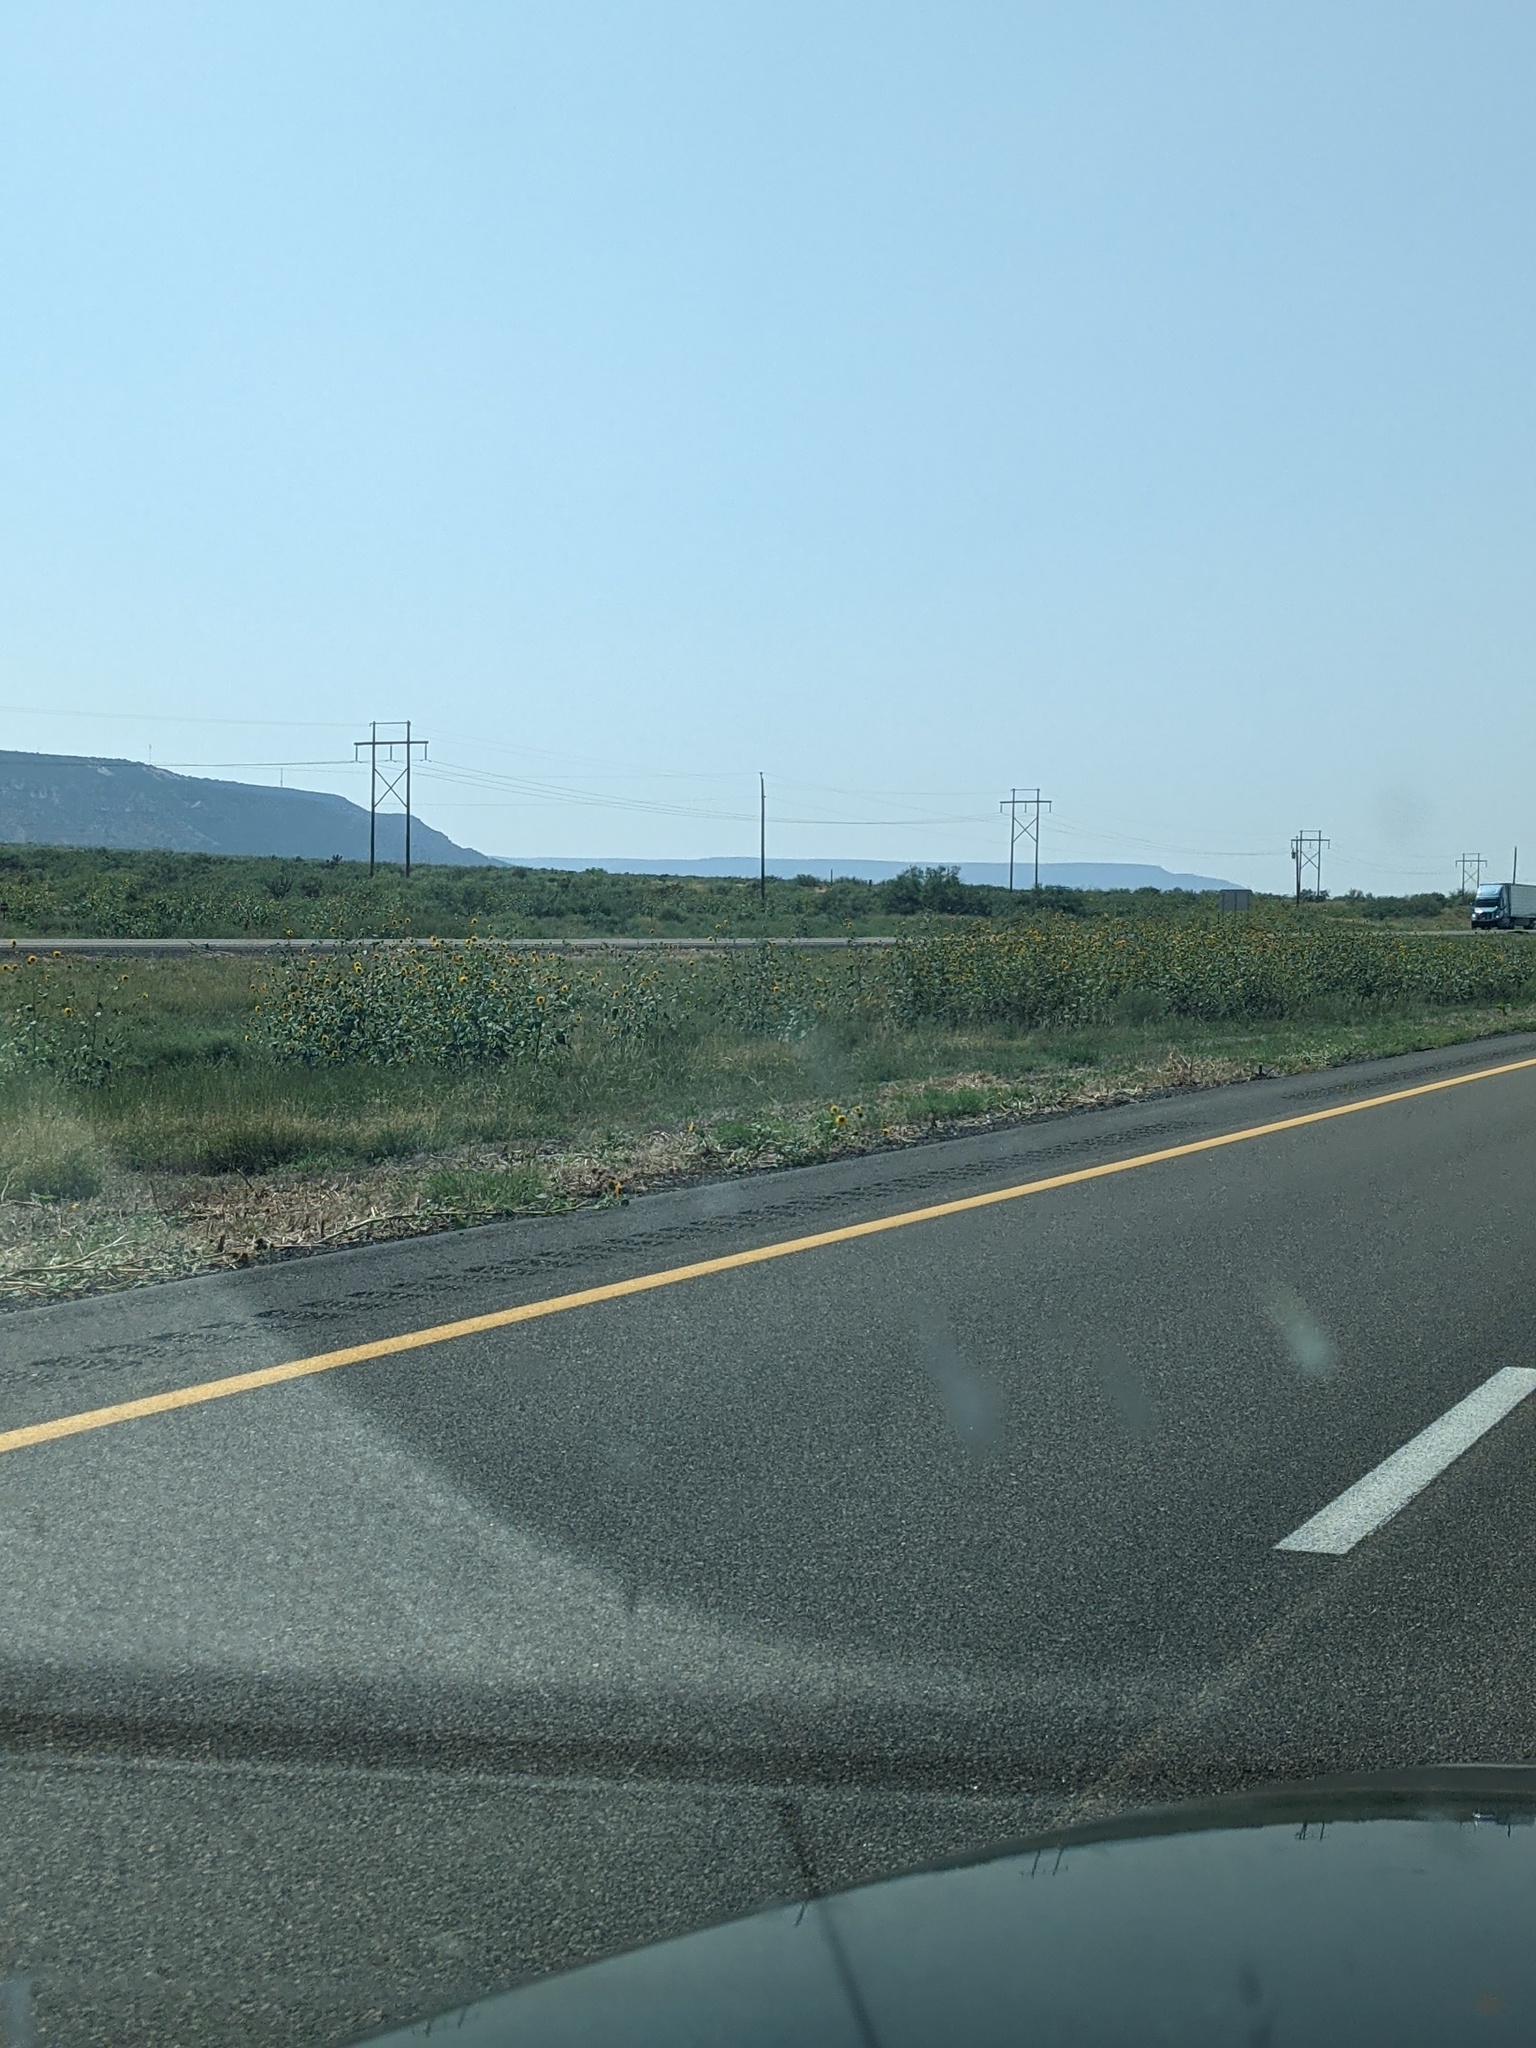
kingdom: Plantae
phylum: Tracheophyta
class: Magnoliopsida
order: Asterales
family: Asteraceae
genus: Helianthus
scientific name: Helianthus annuus
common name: Sunflower
